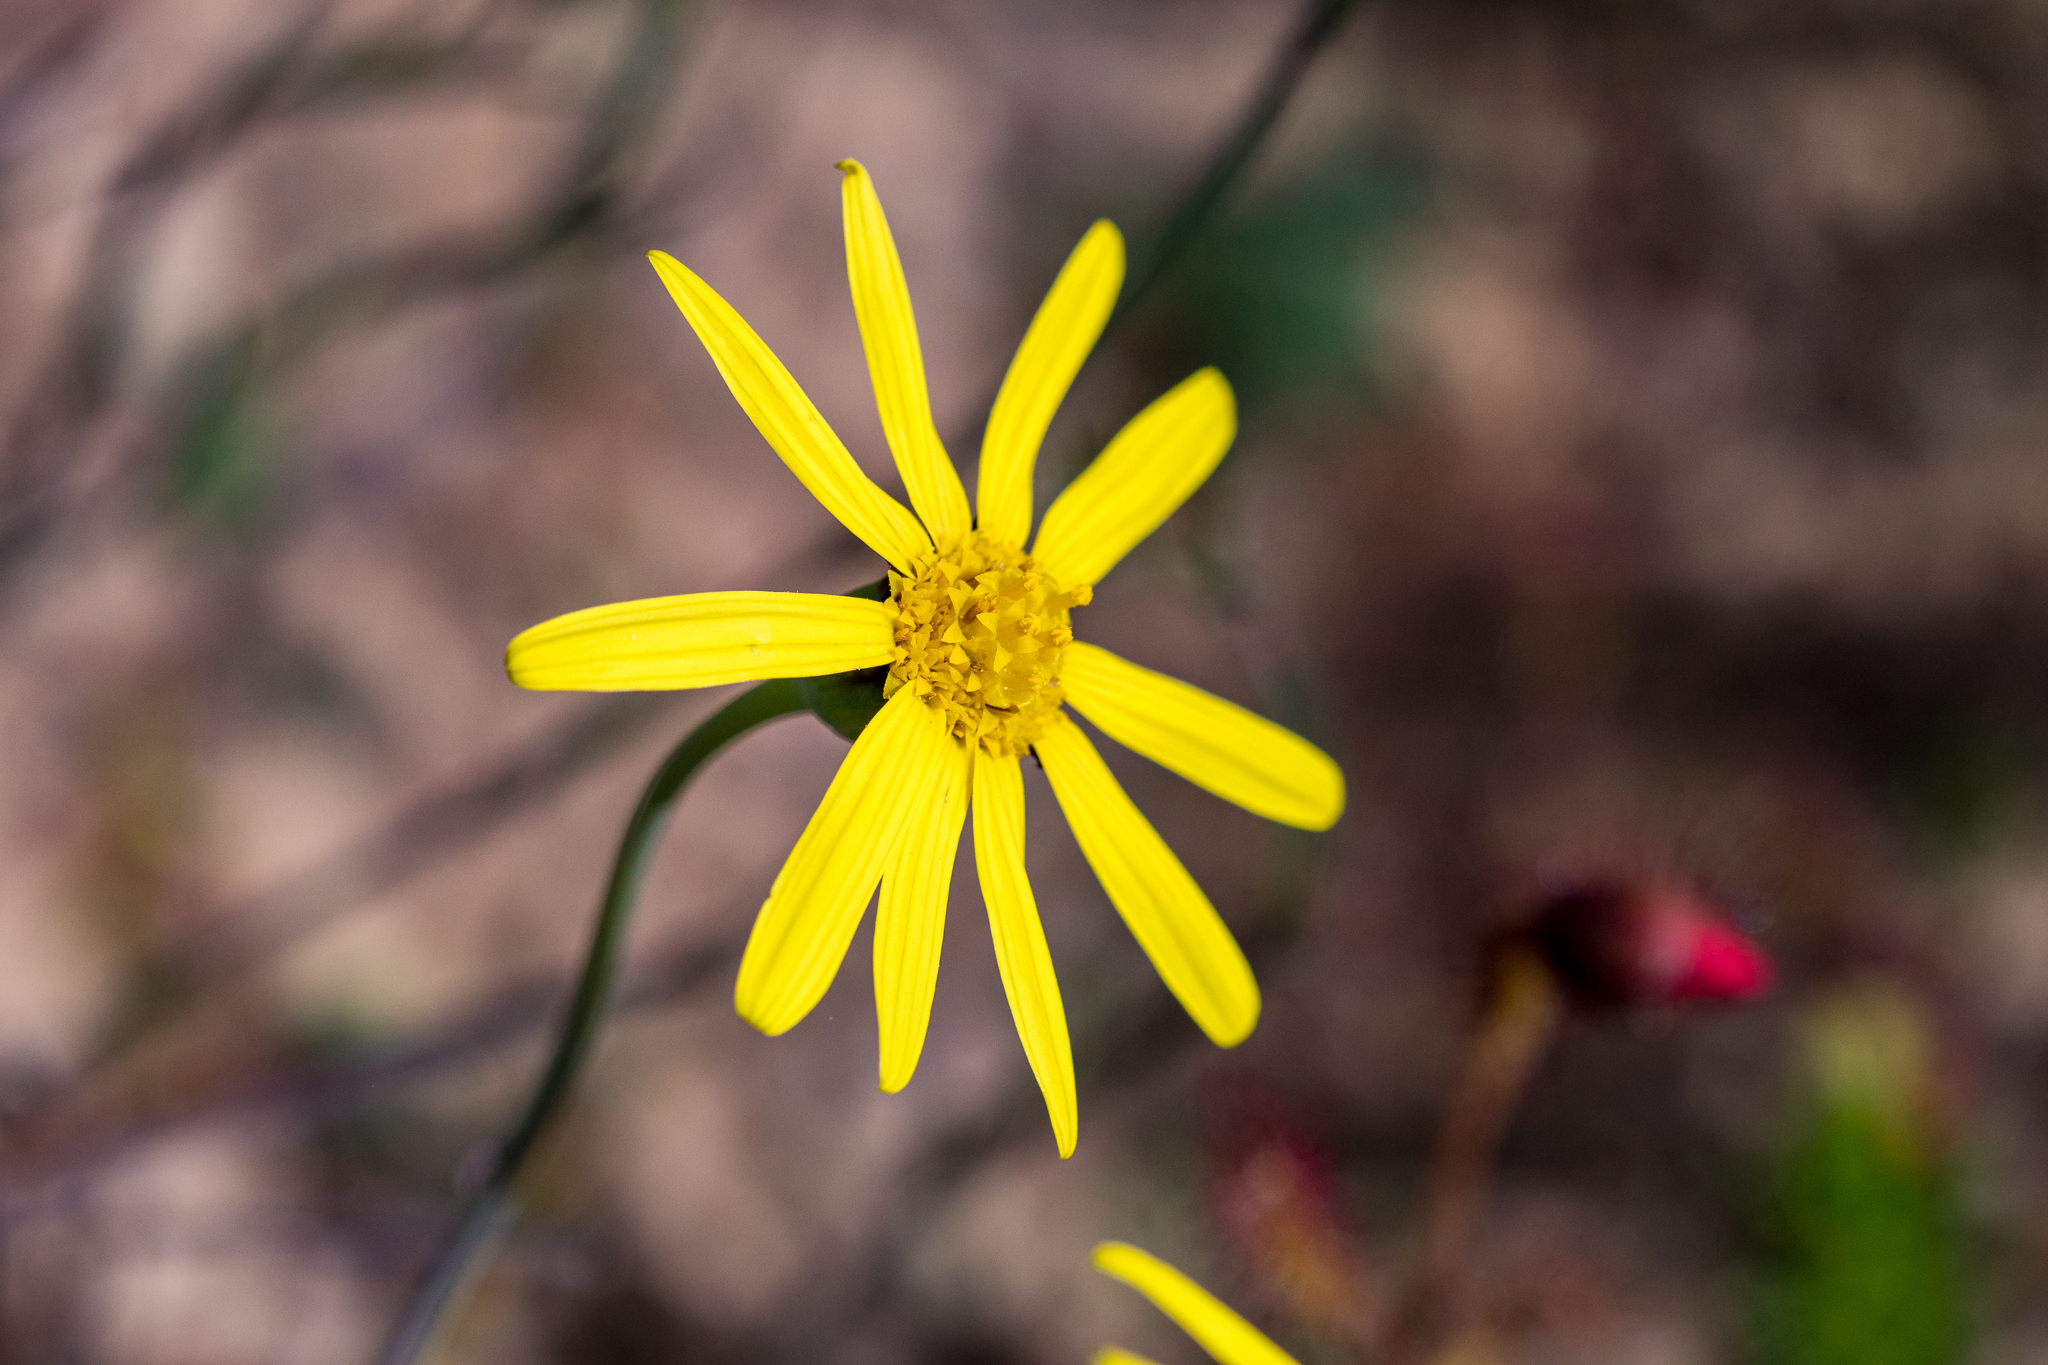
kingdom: Plantae
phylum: Tracheophyta
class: Magnoliopsida
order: Asterales
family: Asteraceae
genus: Othonna
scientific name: Othonna pinnata
